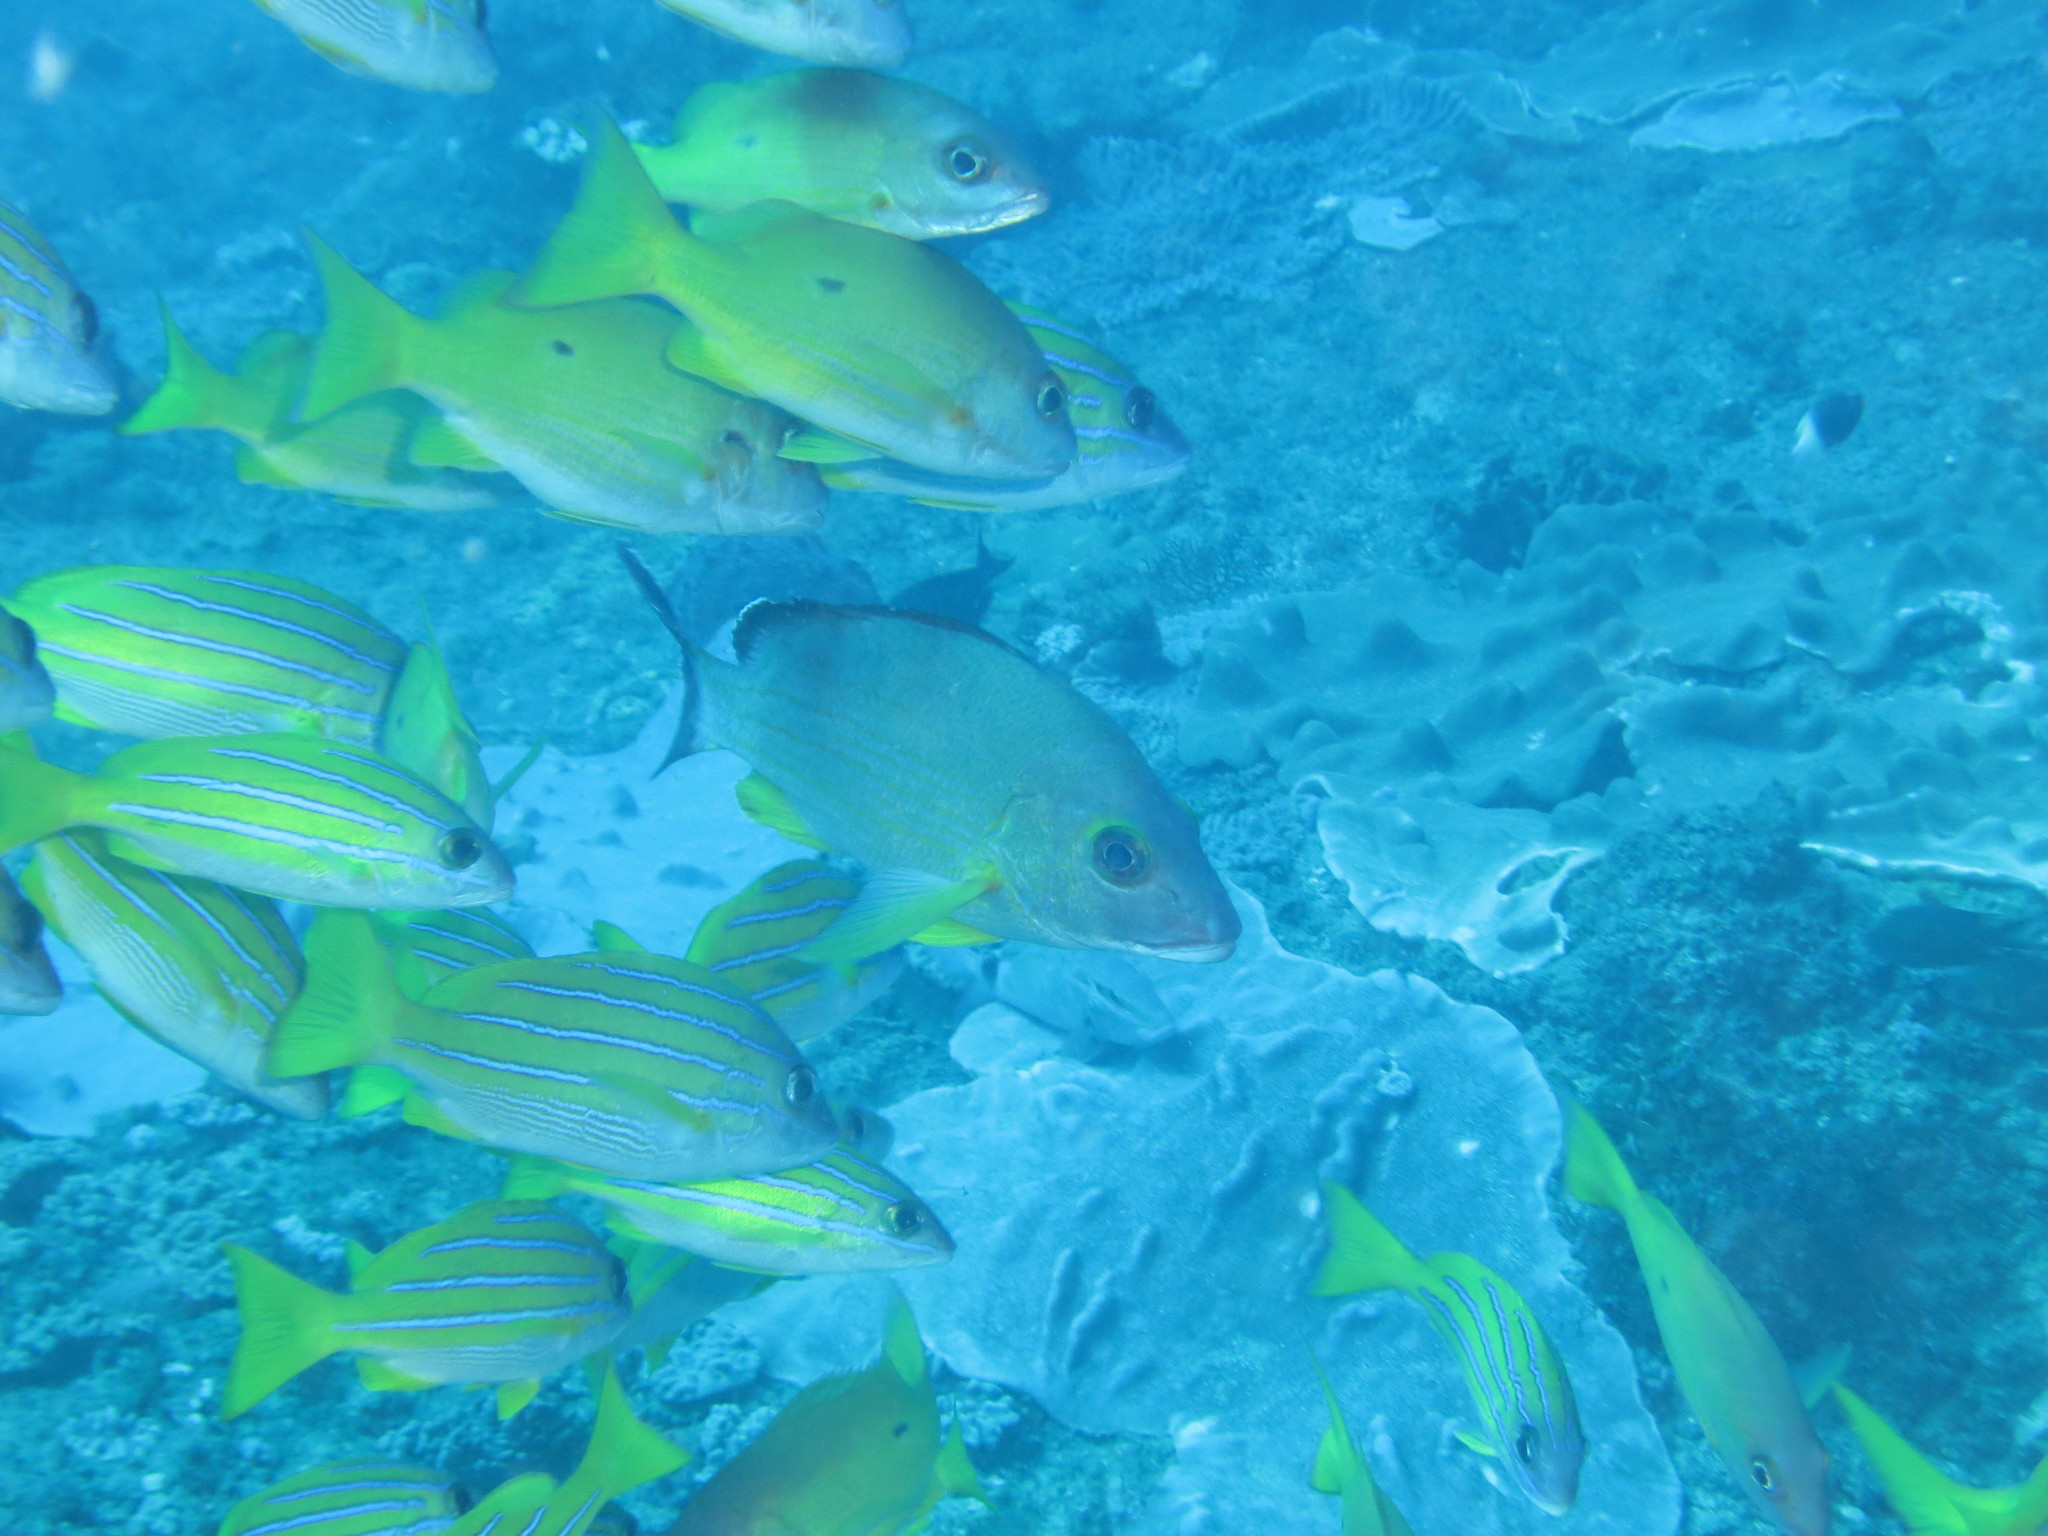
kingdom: Animalia
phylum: Chordata
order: Perciformes
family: Lutjanidae
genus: Lutjanus
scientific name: Lutjanus bengalensis
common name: Bengal snapper
